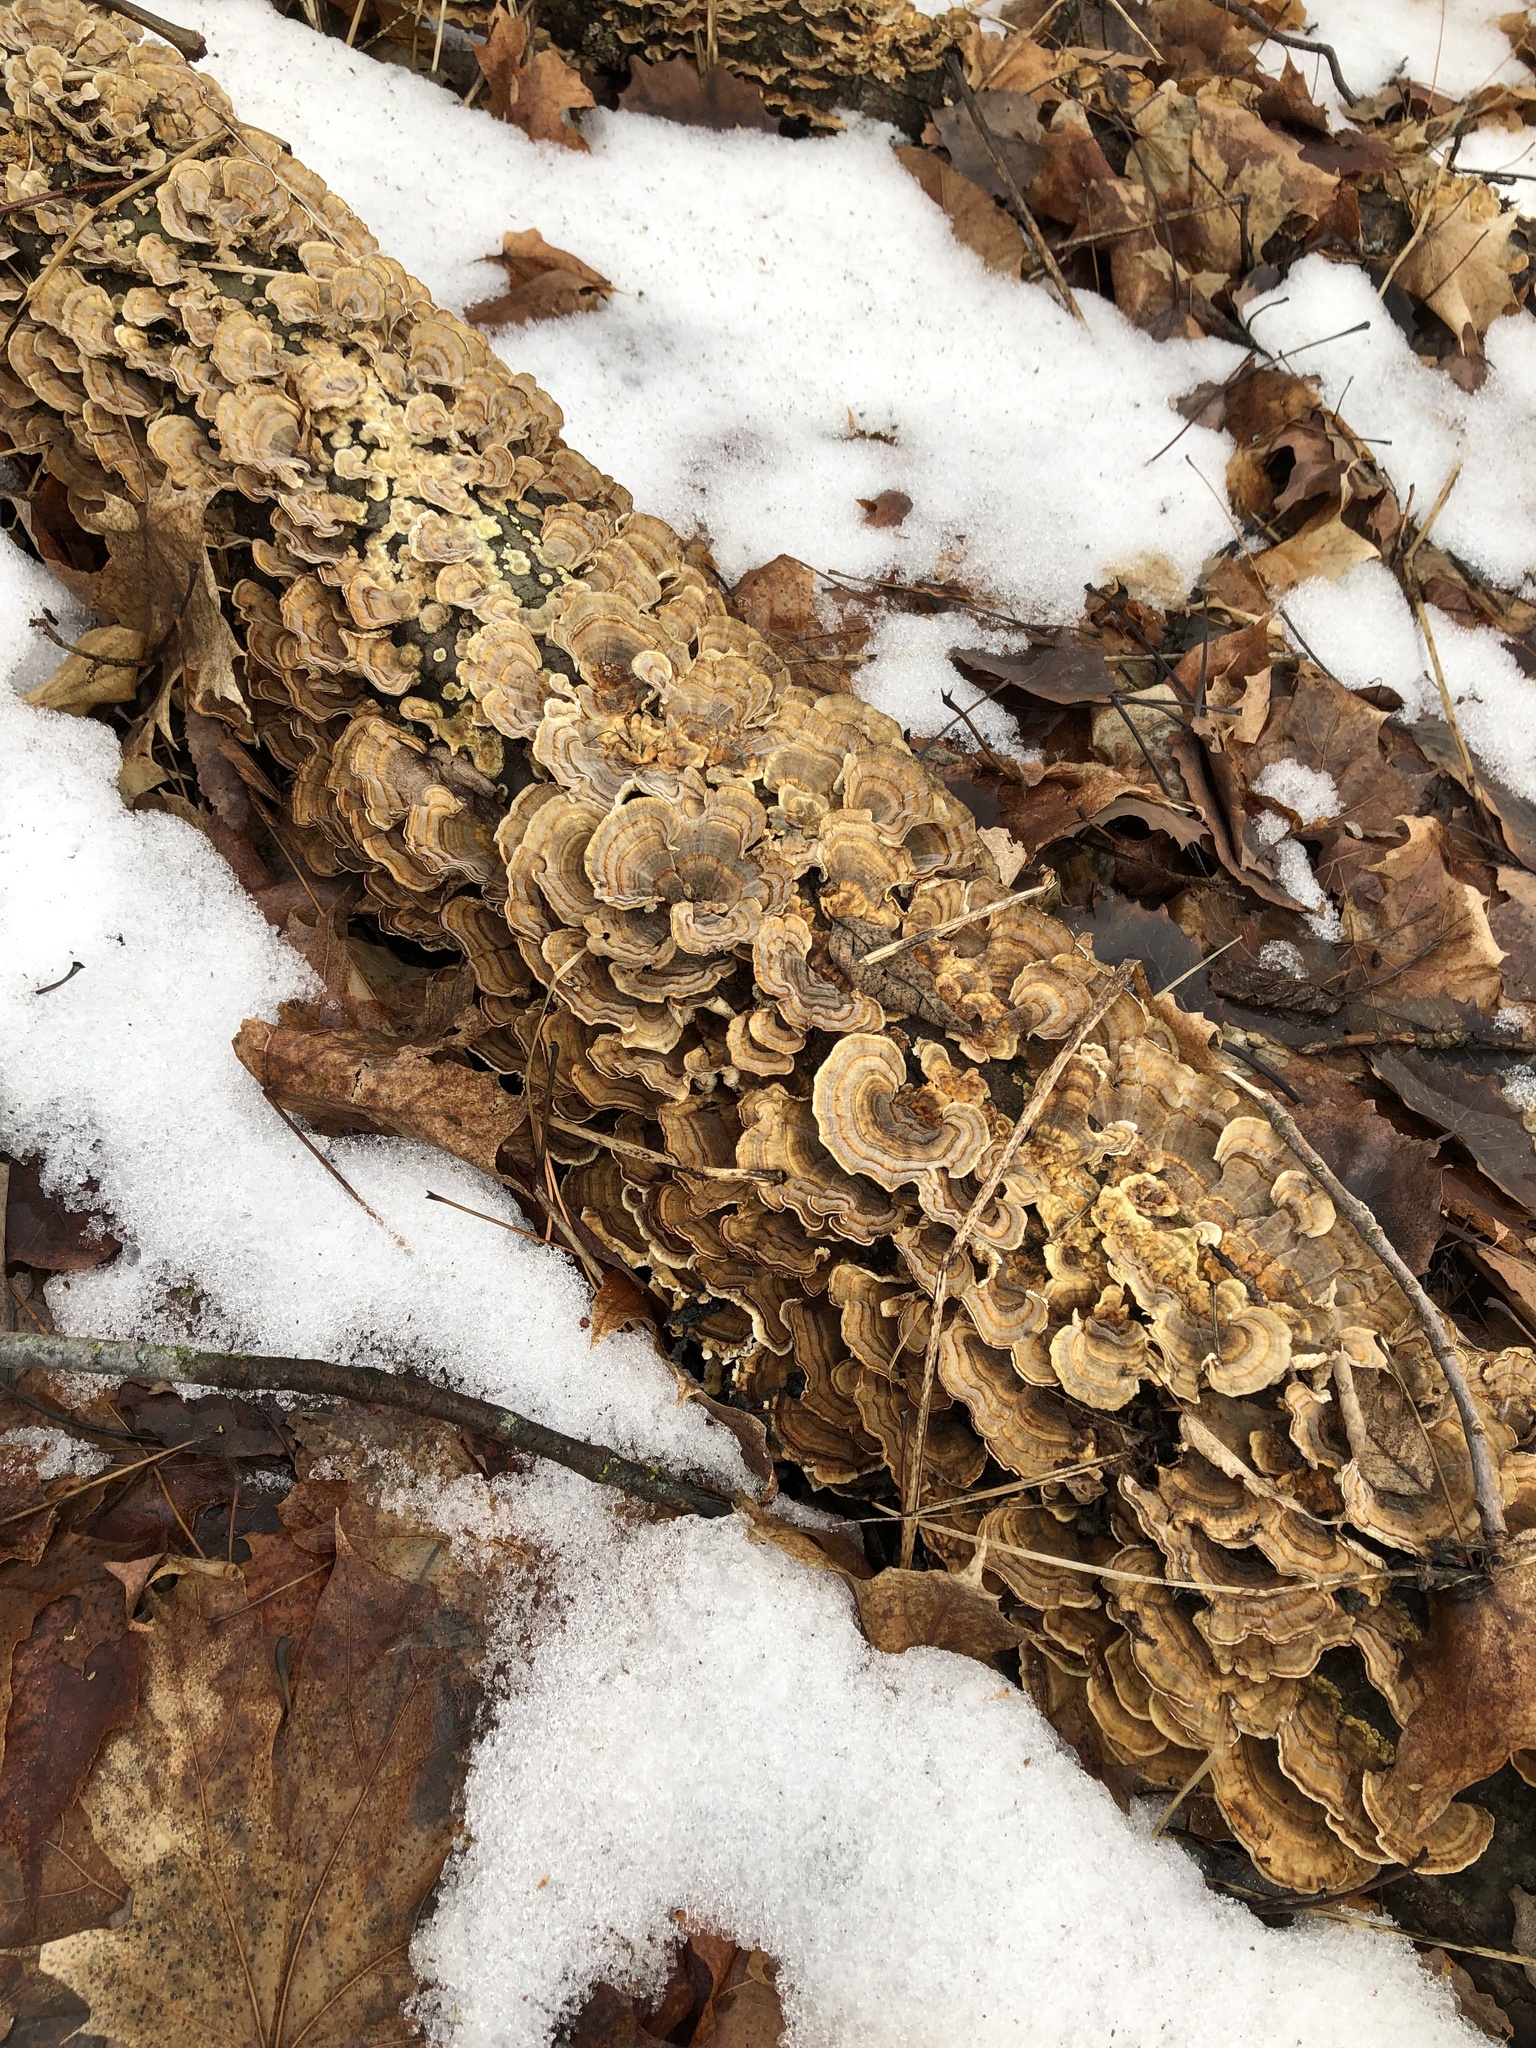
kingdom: Fungi
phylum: Basidiomycota
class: Agaricomycetes
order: Polyporales
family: Polyporaceae
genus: Trametes
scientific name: Trametes versicolor
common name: Turkeytail
